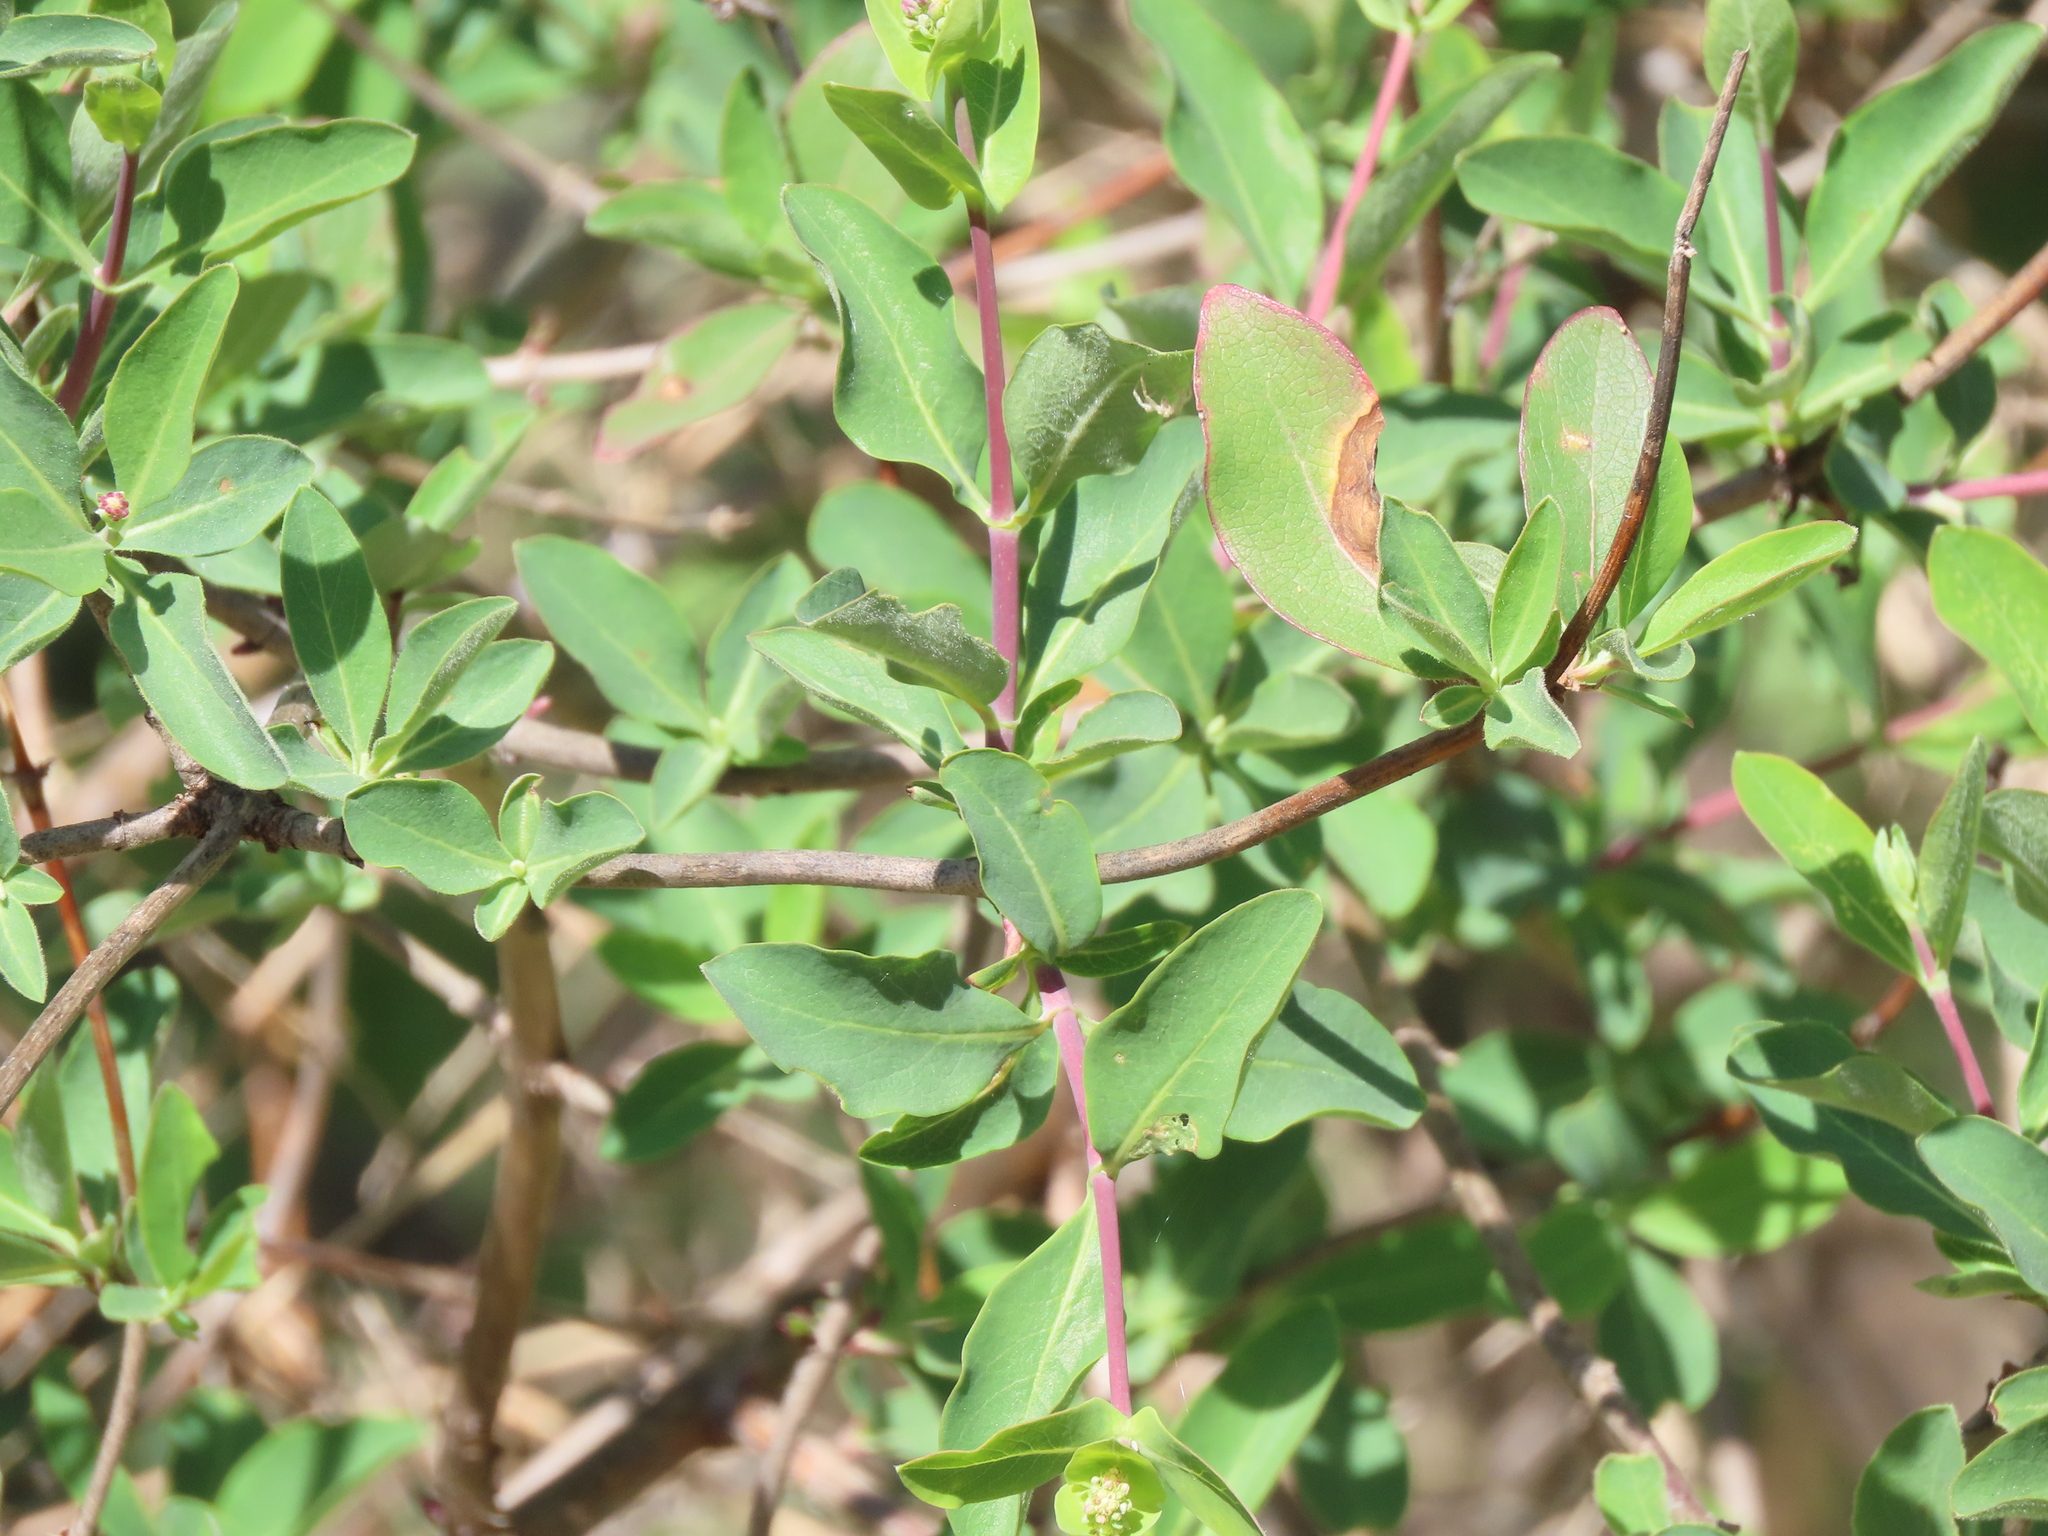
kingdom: Plantae
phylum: Tracheophyta
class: Magnoliopsida
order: Dipsacales
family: Caprifoliaceae
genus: Lonicera
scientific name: Lonicera etrusca
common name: Etruscan honeysuckle
